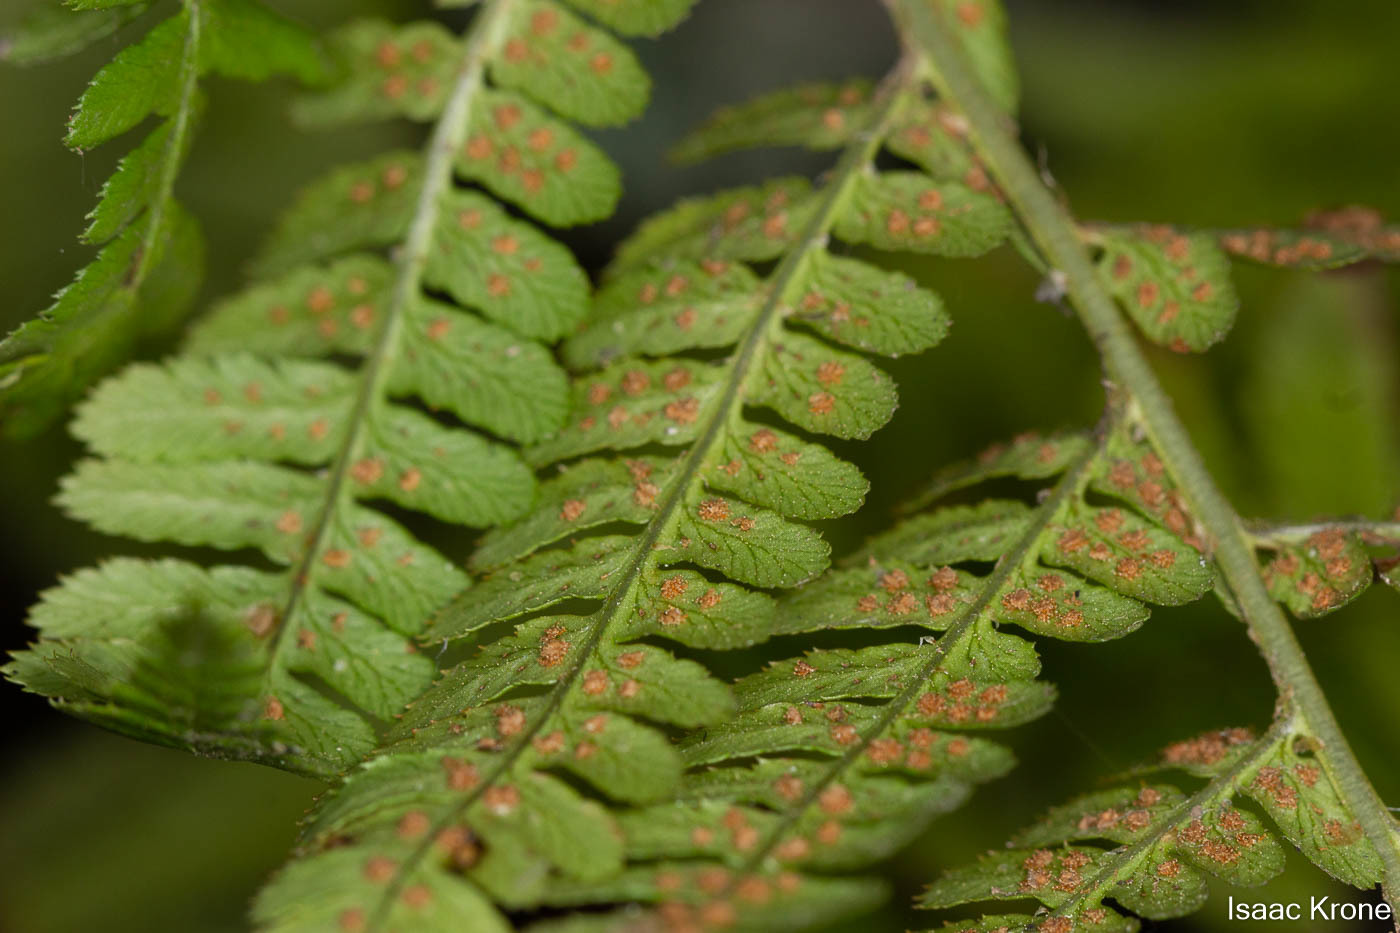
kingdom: Plantae
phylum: Tracheophyta
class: Polypodiopsida
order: Polypodiales
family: Dryopteridaceae
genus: Dryopteris
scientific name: Dryopteris arguta
